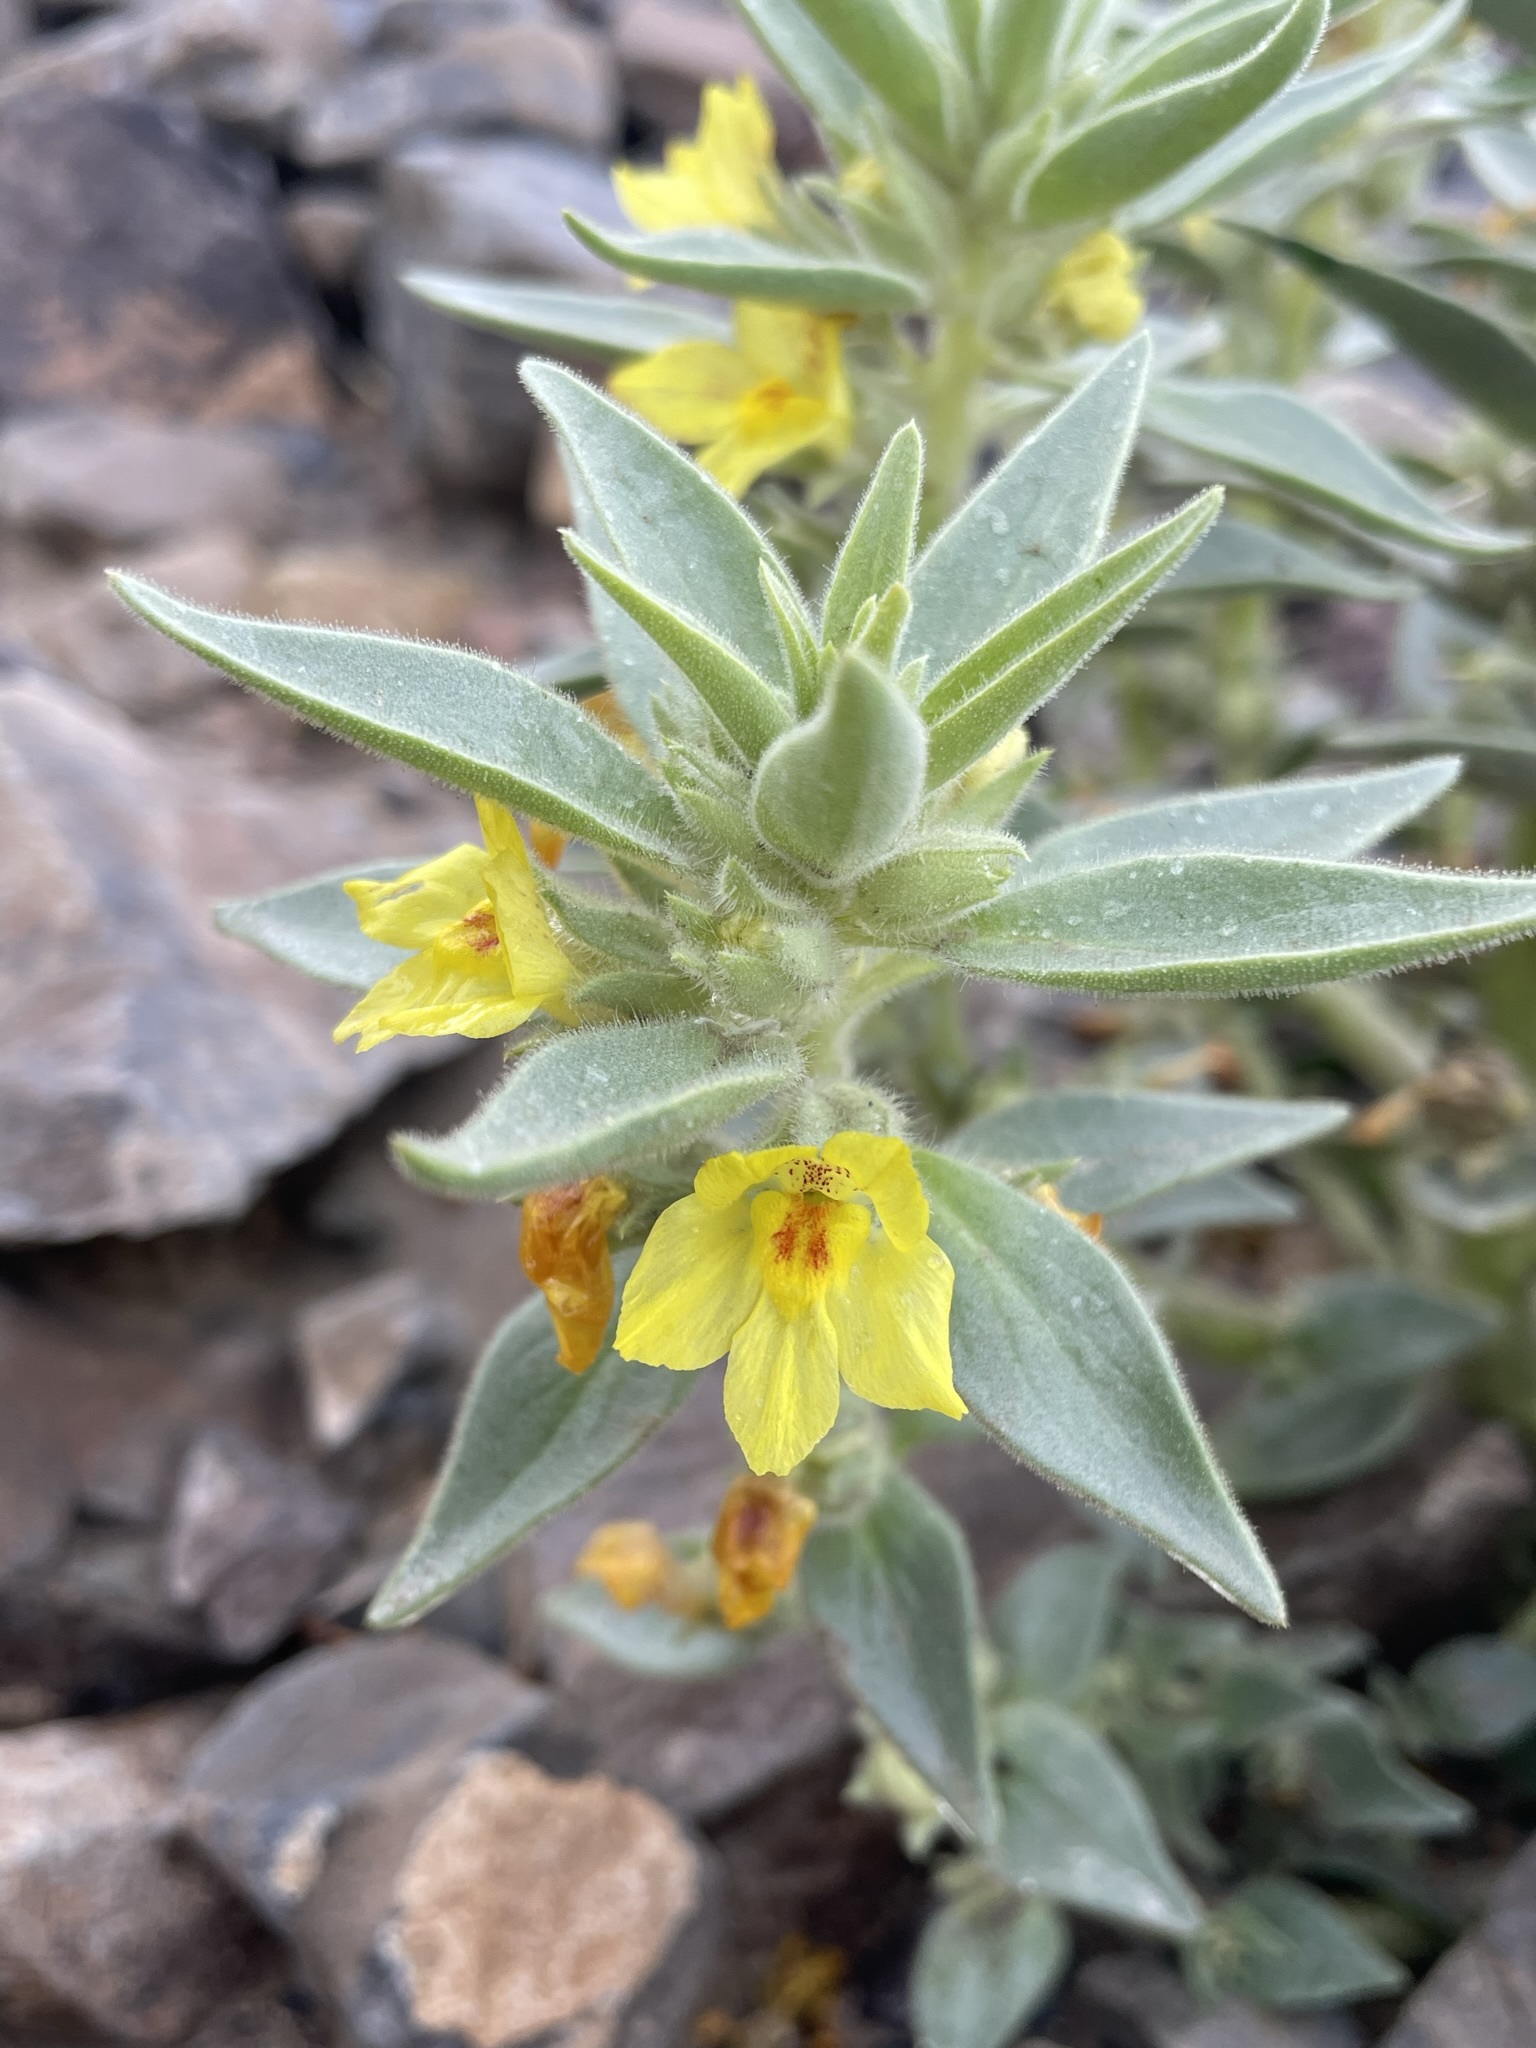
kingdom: Plantae
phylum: Tracheophyta
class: Magnoliopsida
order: Lamiales
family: Plantaginaceae
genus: Mohavea
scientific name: Mohavea breviflora
